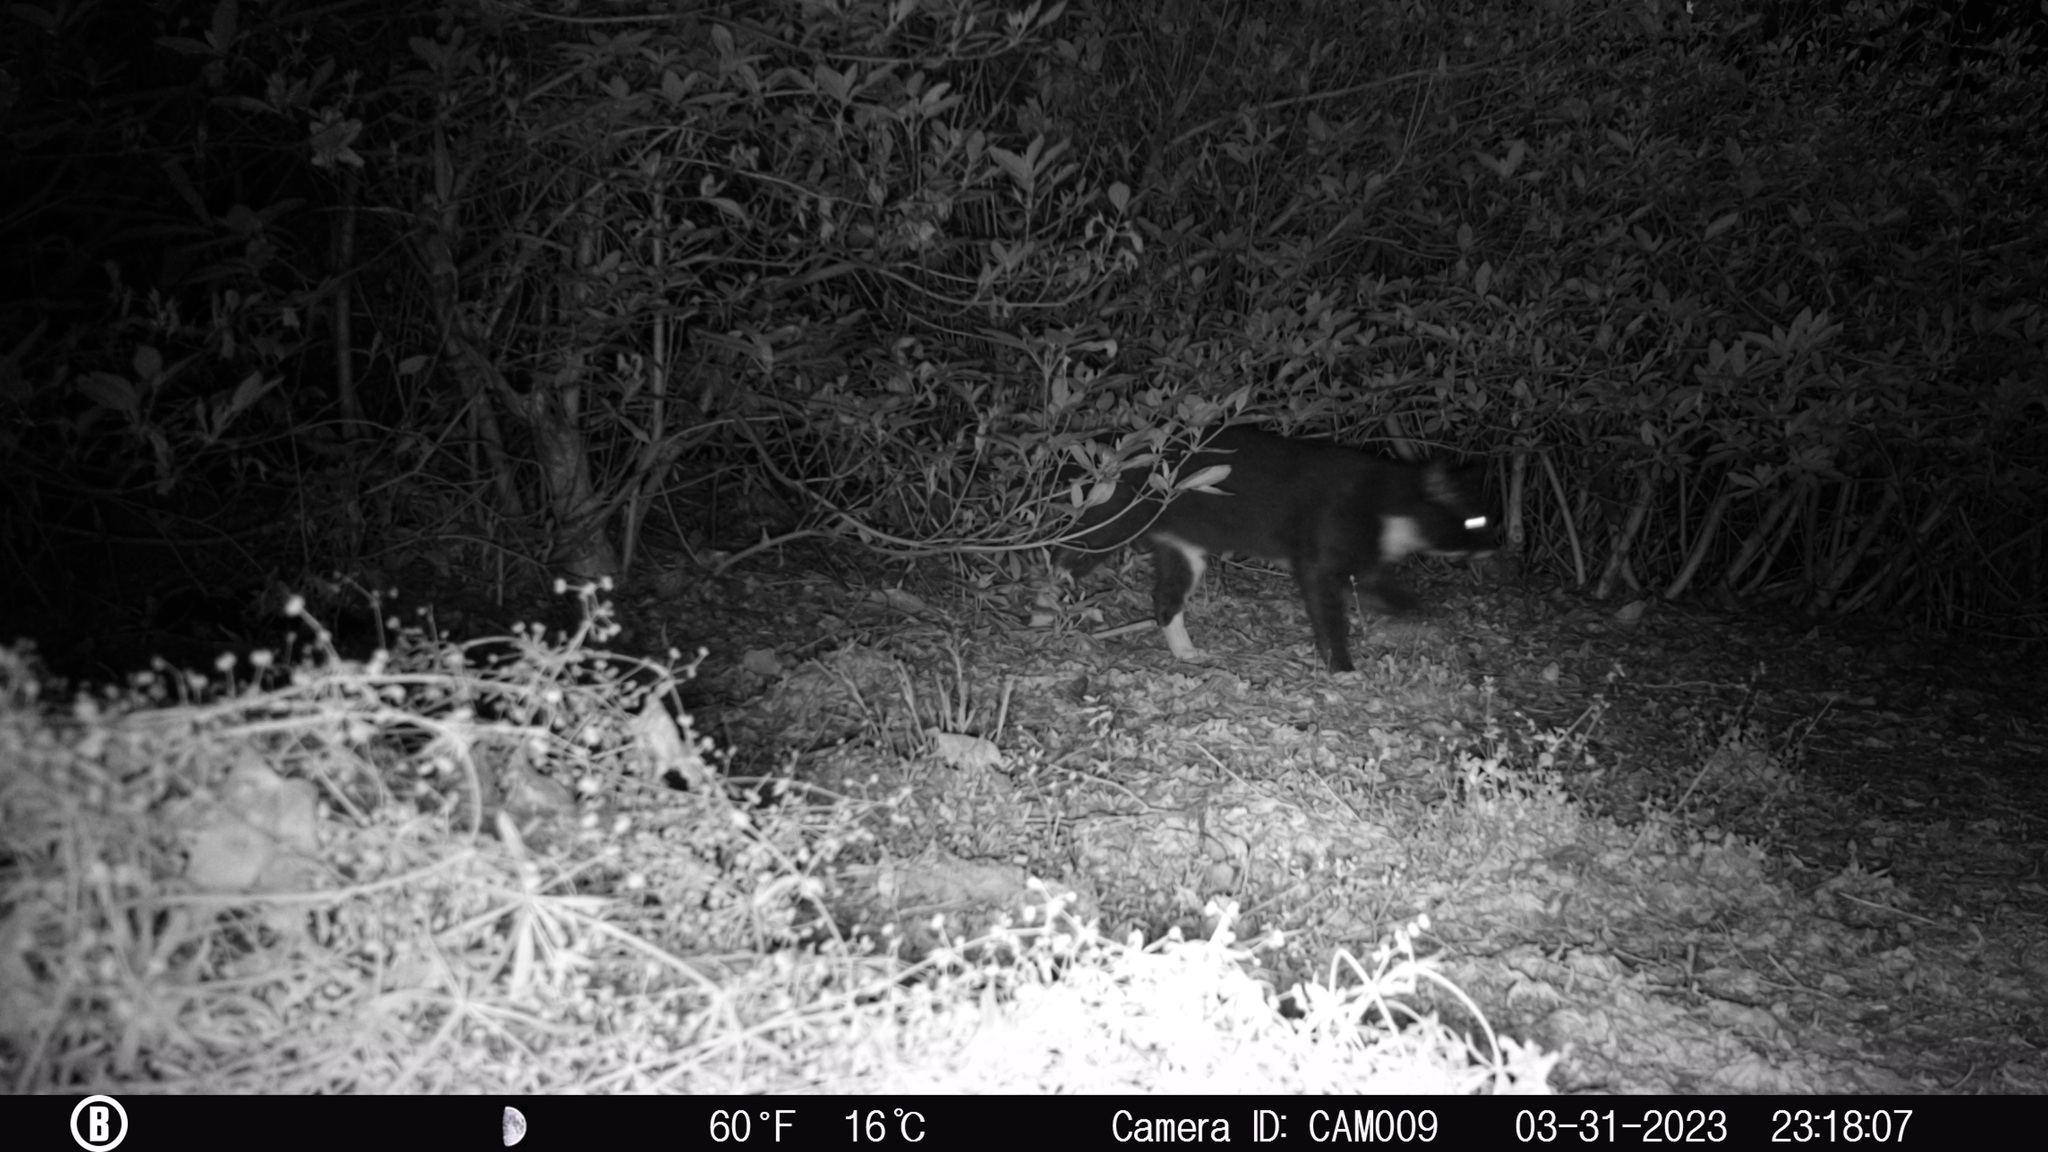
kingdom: Animalia
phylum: Chordata
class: Mammalia
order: Carnivora
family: Felidae
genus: Felis
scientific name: Felis catus
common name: Domestic cat
